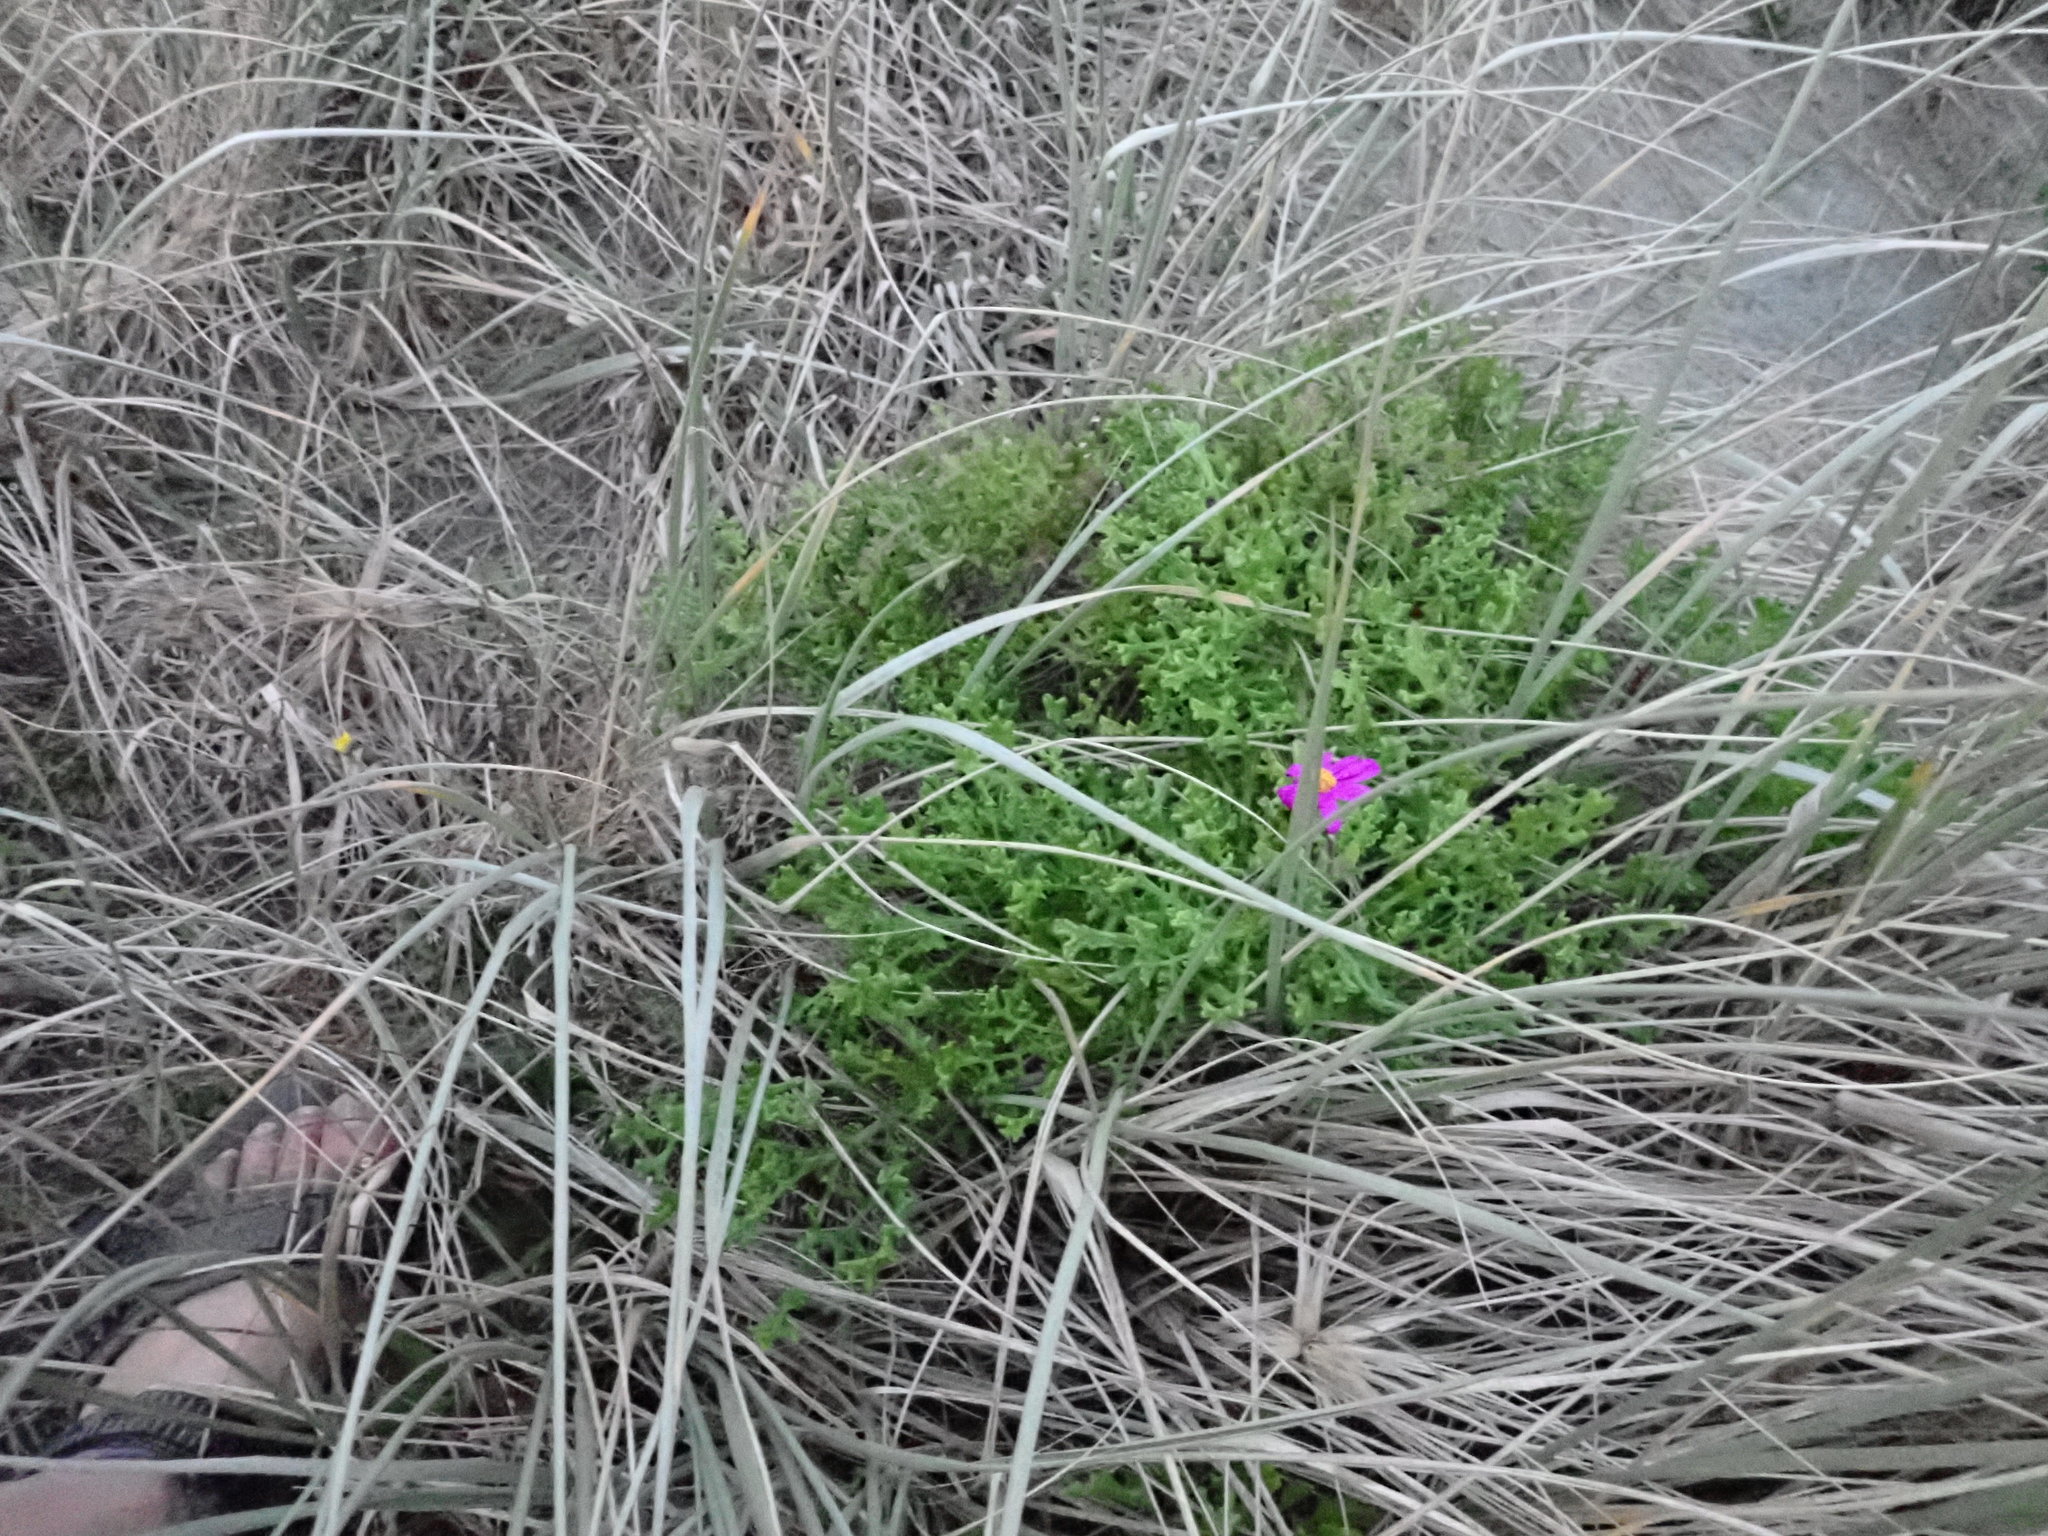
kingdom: Plantae
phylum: Tracheophyta
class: Magnoliopsida
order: Asterales
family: Asteraceae
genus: Senecio
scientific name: Senecio elegans
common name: Purple groundsel
